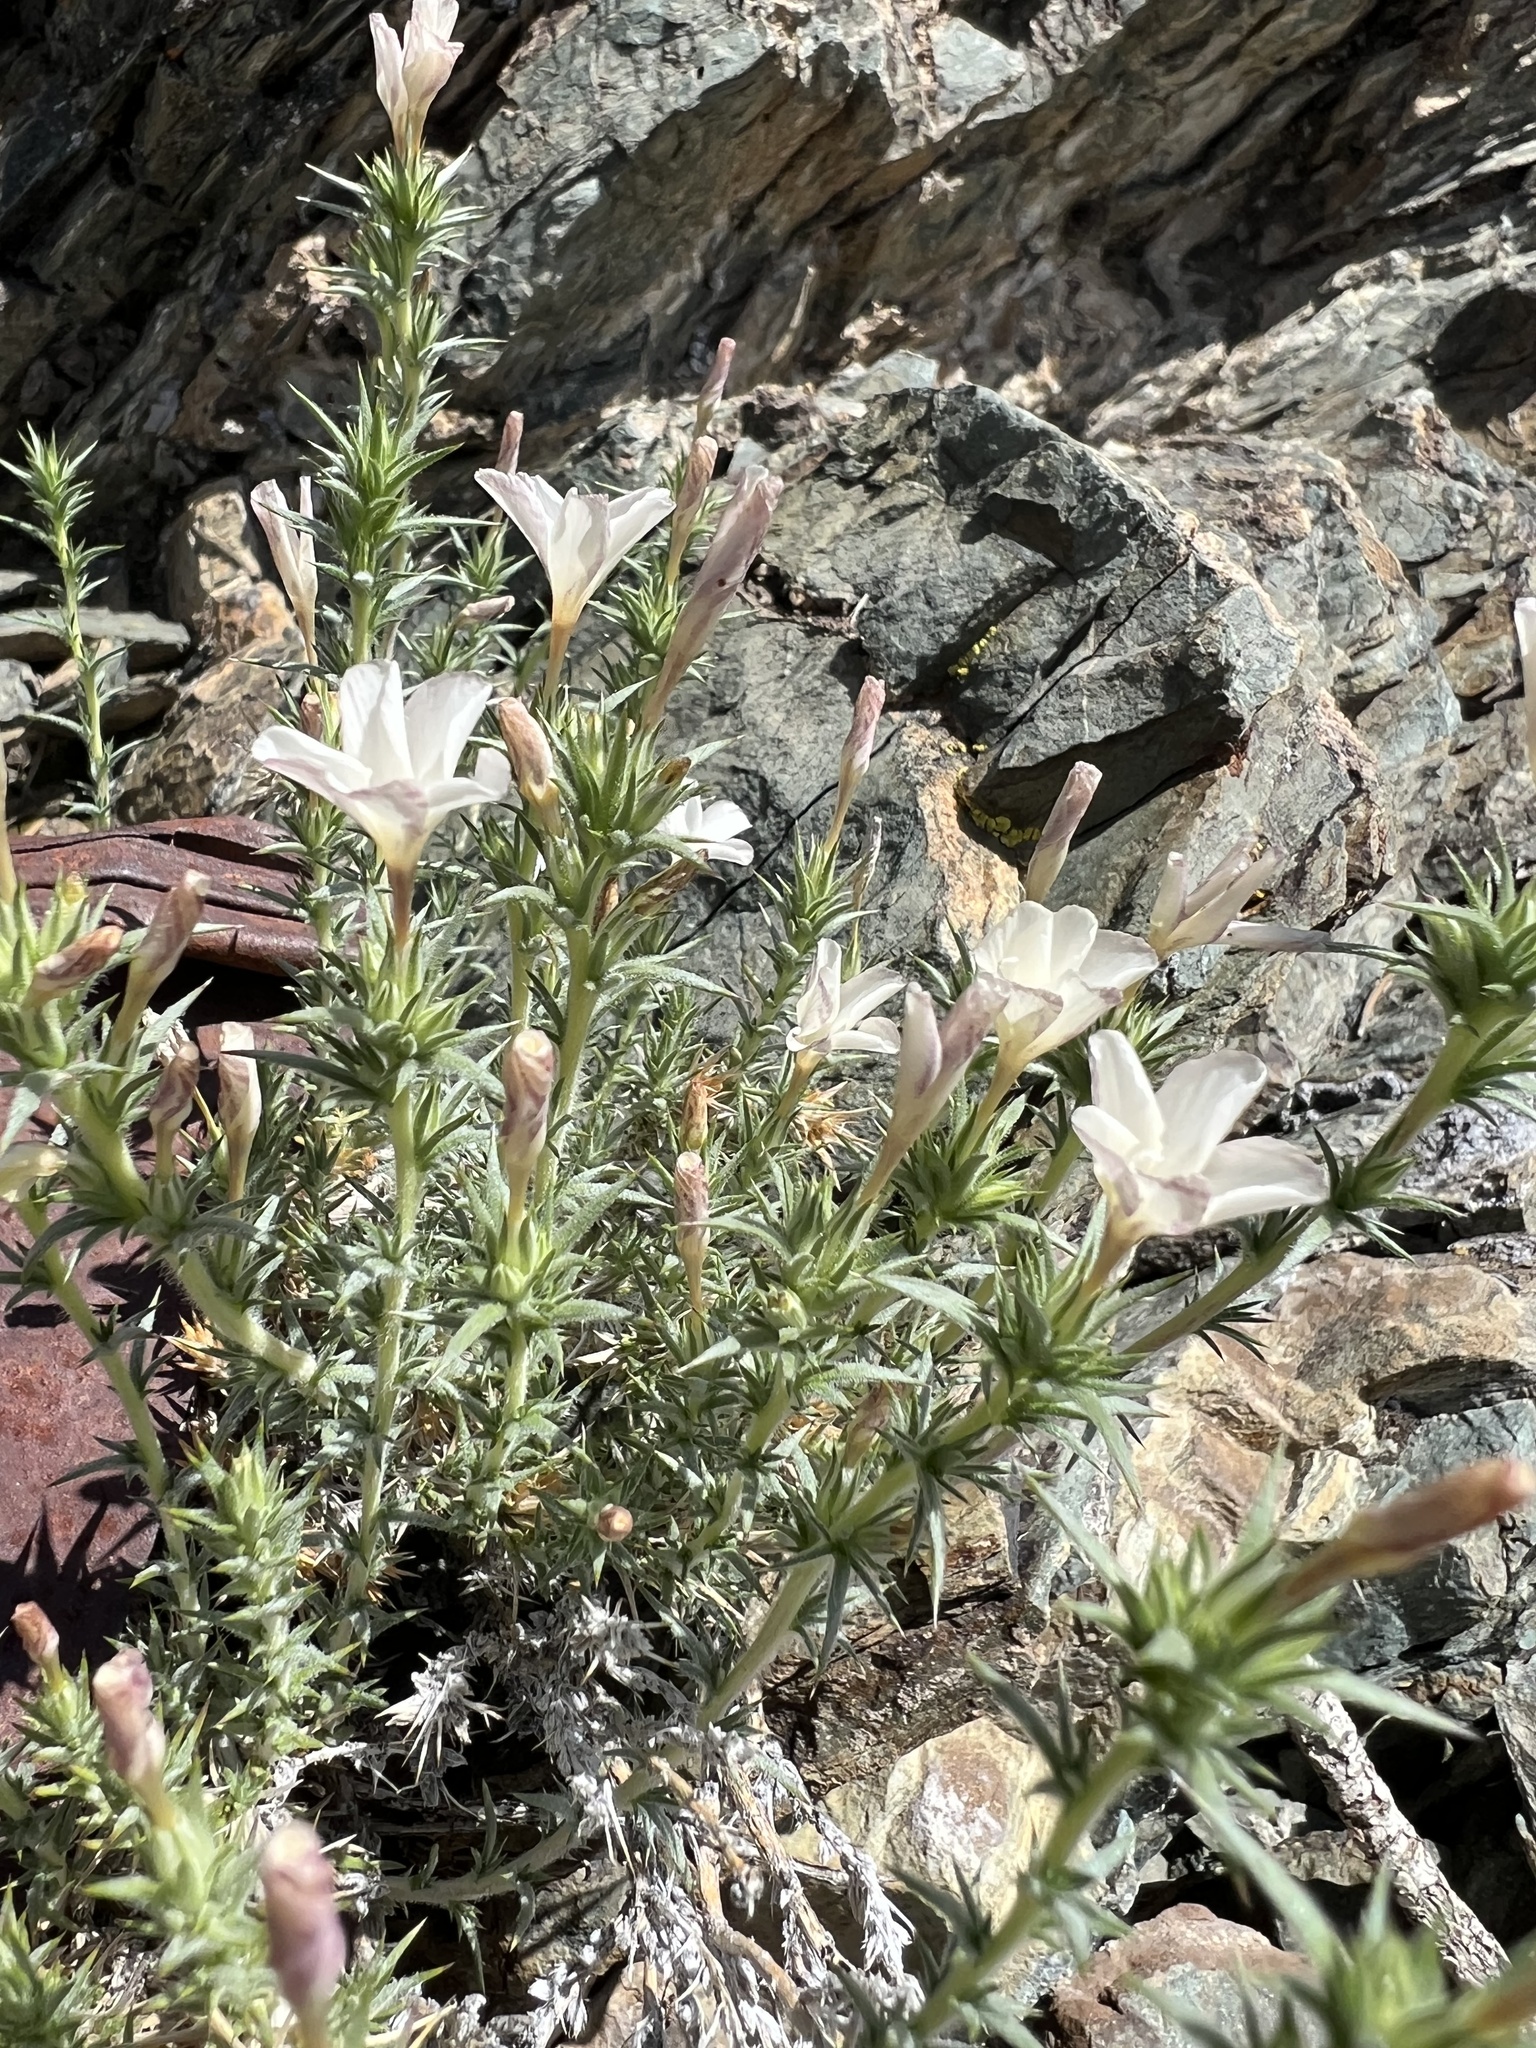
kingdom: Plantae
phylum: Tracheophyta
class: Magnoliopsida
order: Ericales
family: Polemoniaceae
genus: Linanthus
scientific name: Linanthus pungens
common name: Granite prickly phlox
